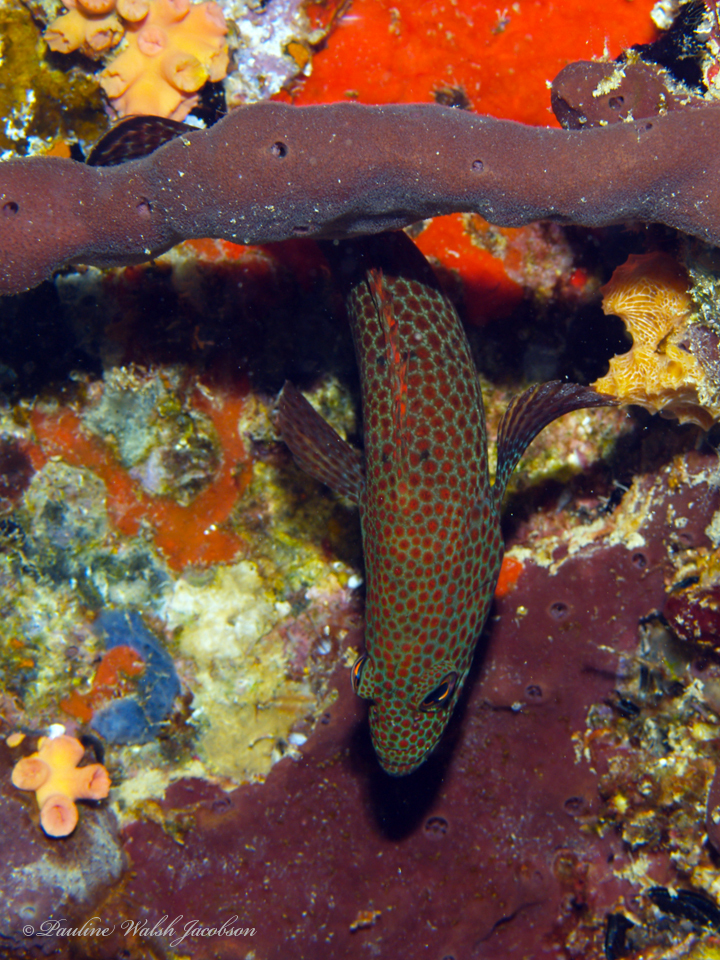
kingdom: Animalia
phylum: Chordata
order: Perciformes
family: Serranidae
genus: Cephalopholis
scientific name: Cephalopholis cruentata
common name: Graysby
